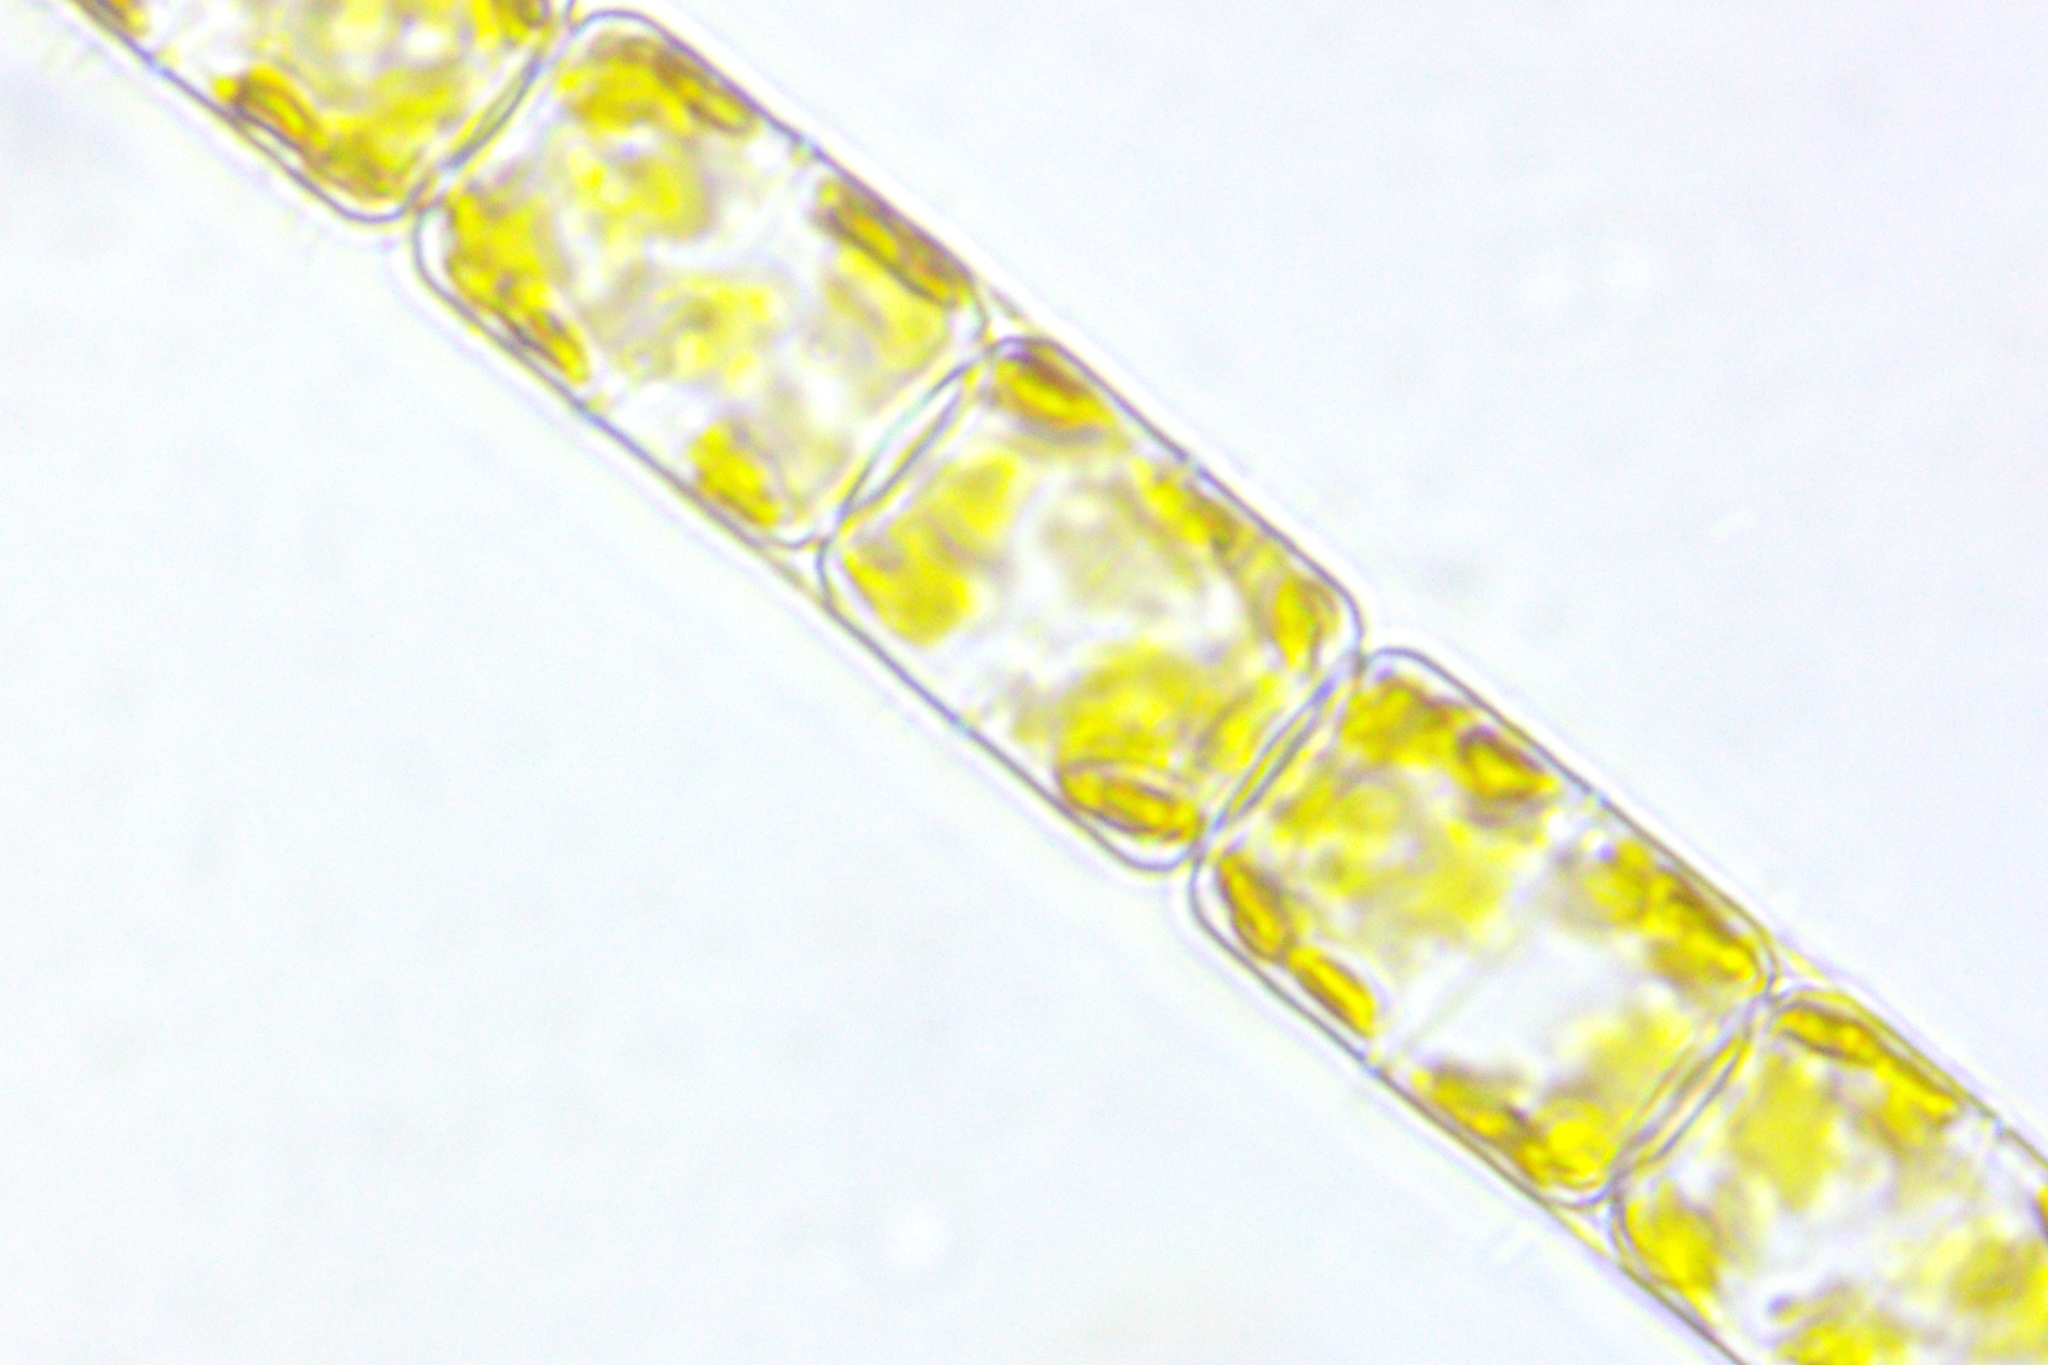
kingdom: Chromista
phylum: Ochrophyta
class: Bacillariophyceae
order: Melosirales
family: Melosiraceae
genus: Melosira
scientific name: Melosira varians
